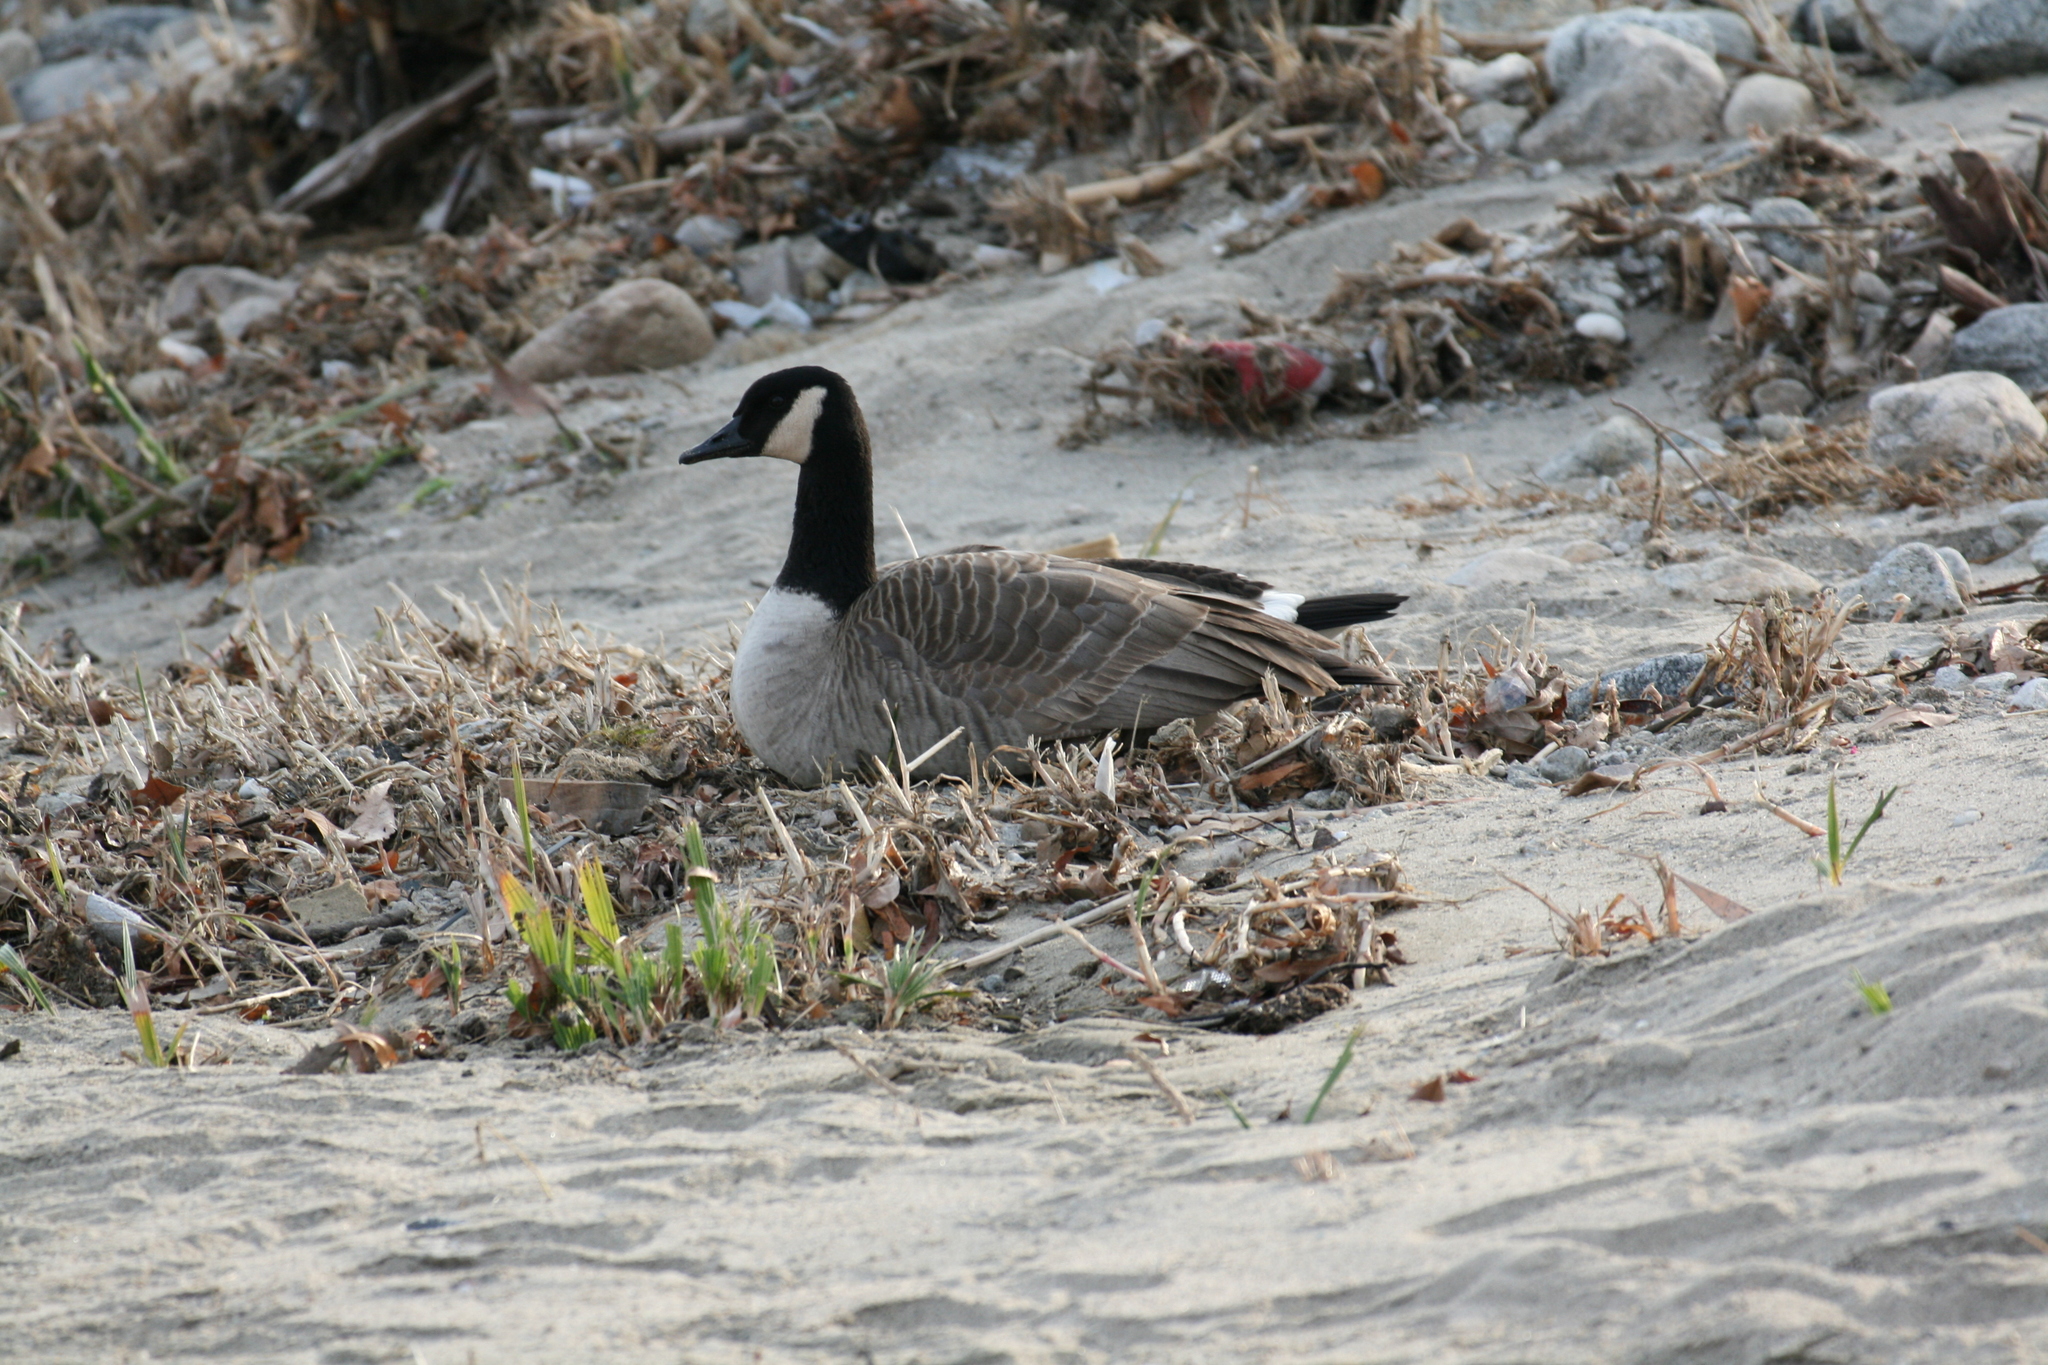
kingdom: Animalia
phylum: Chordata
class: Aves
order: Anseriformes
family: Anatidae
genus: Branta
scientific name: Branta canadensis
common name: Canada goose
